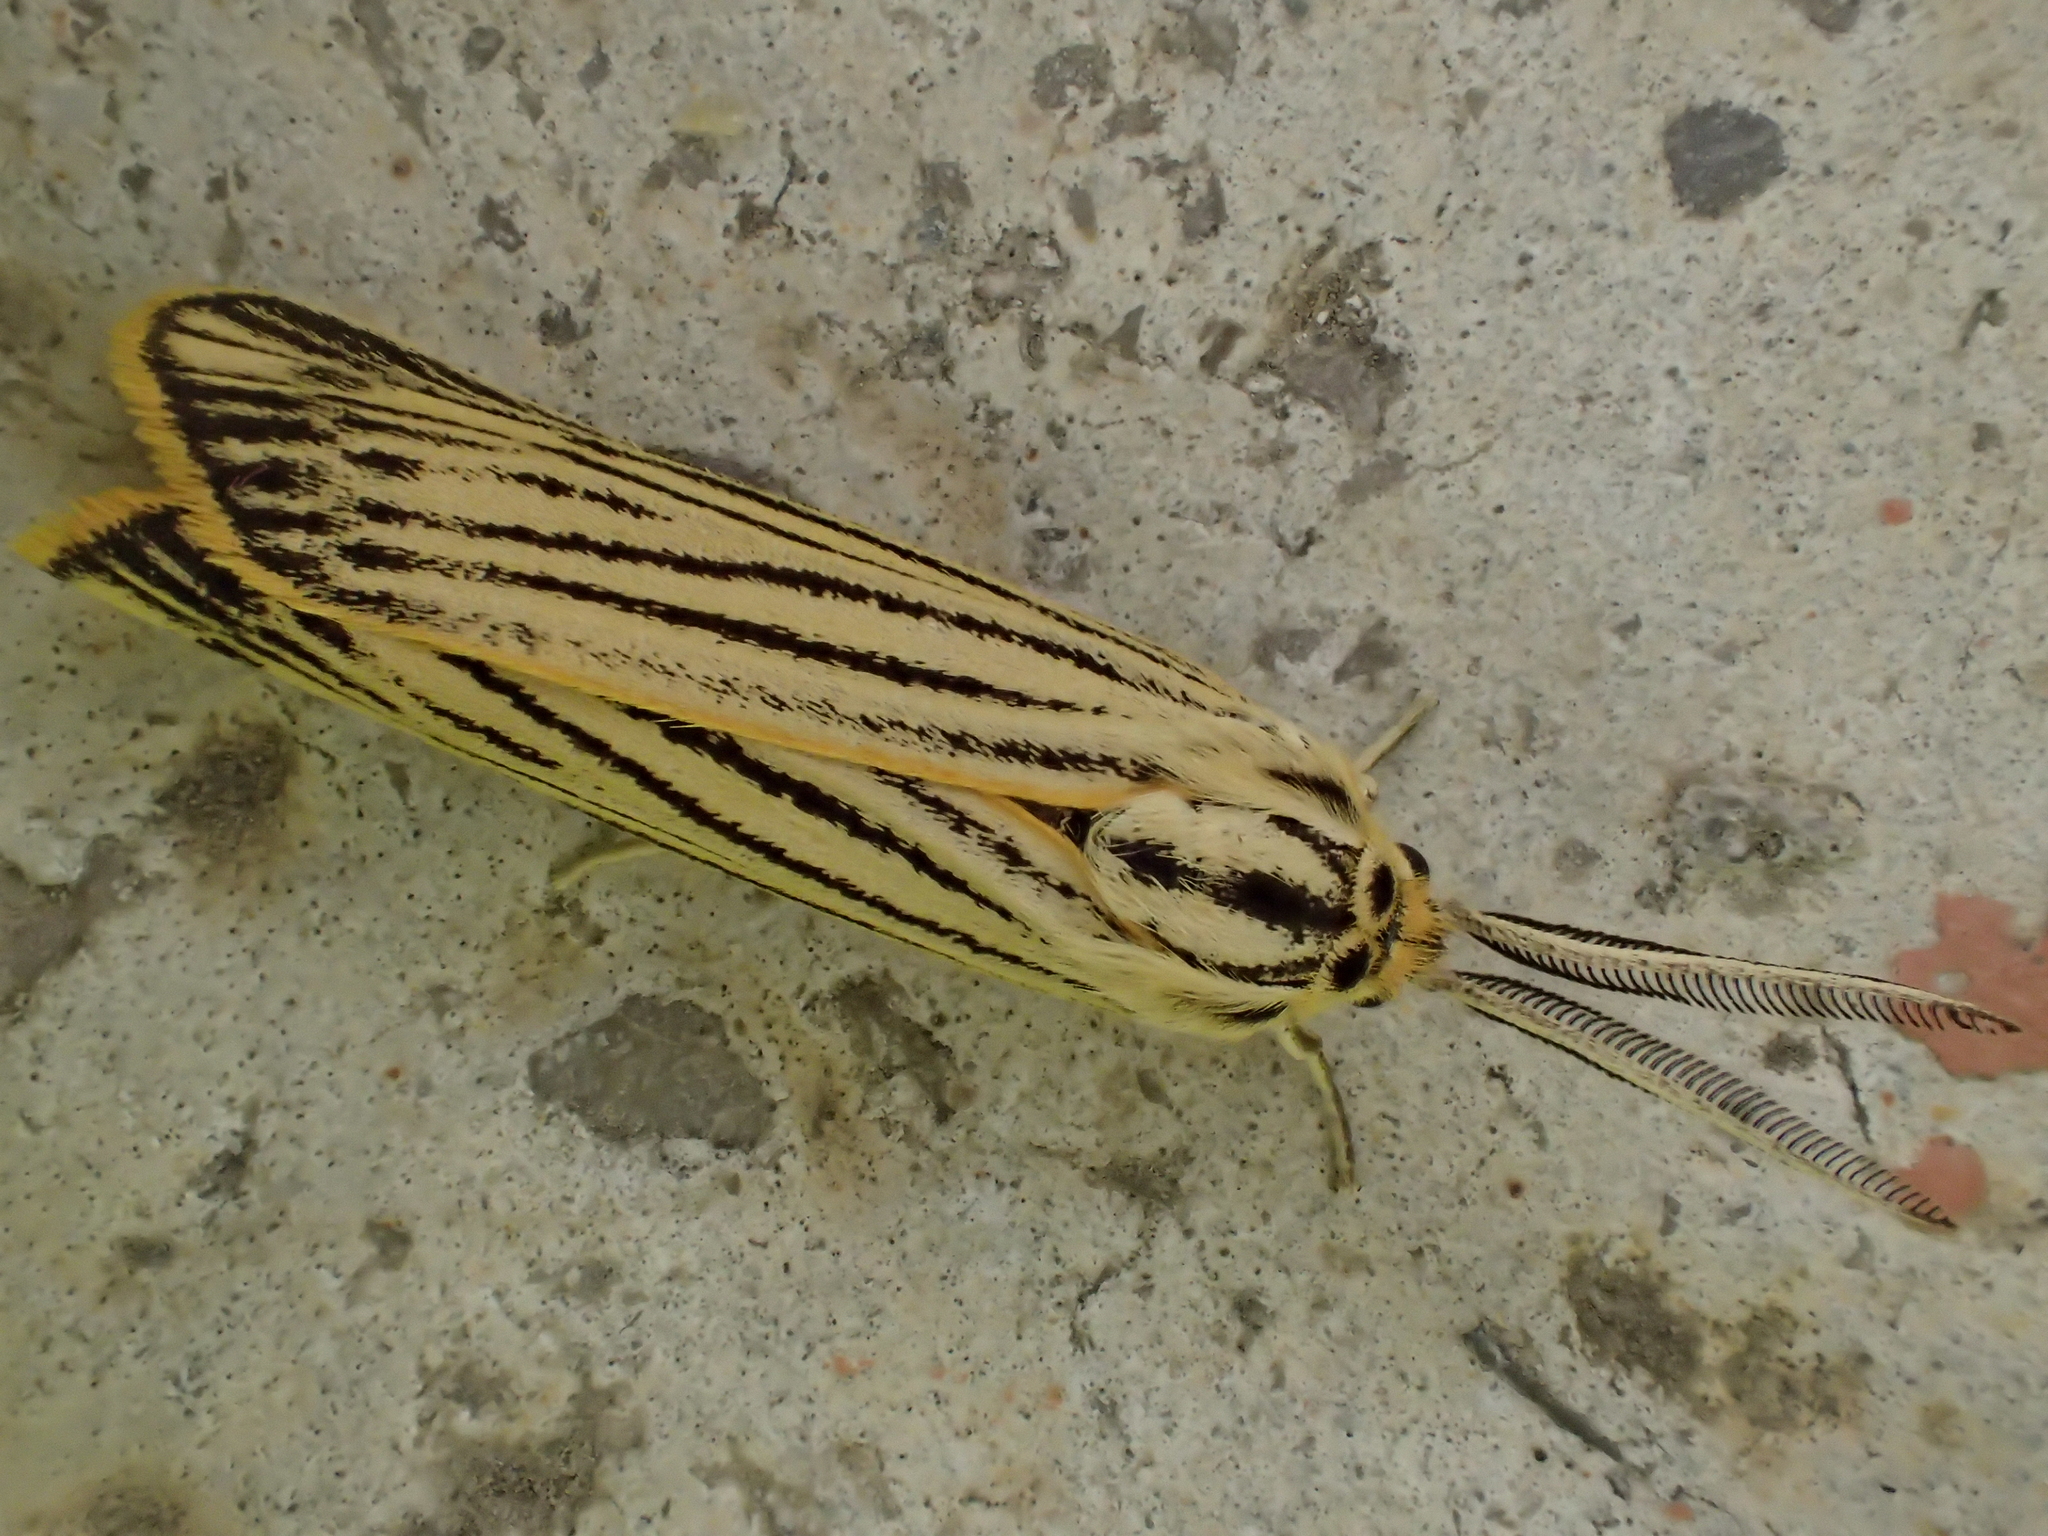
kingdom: Animalia
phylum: Arthropoda
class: Insecta
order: Lepidoptera
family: Erebidae
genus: Coscinia
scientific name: Coscinia Spiris striata
